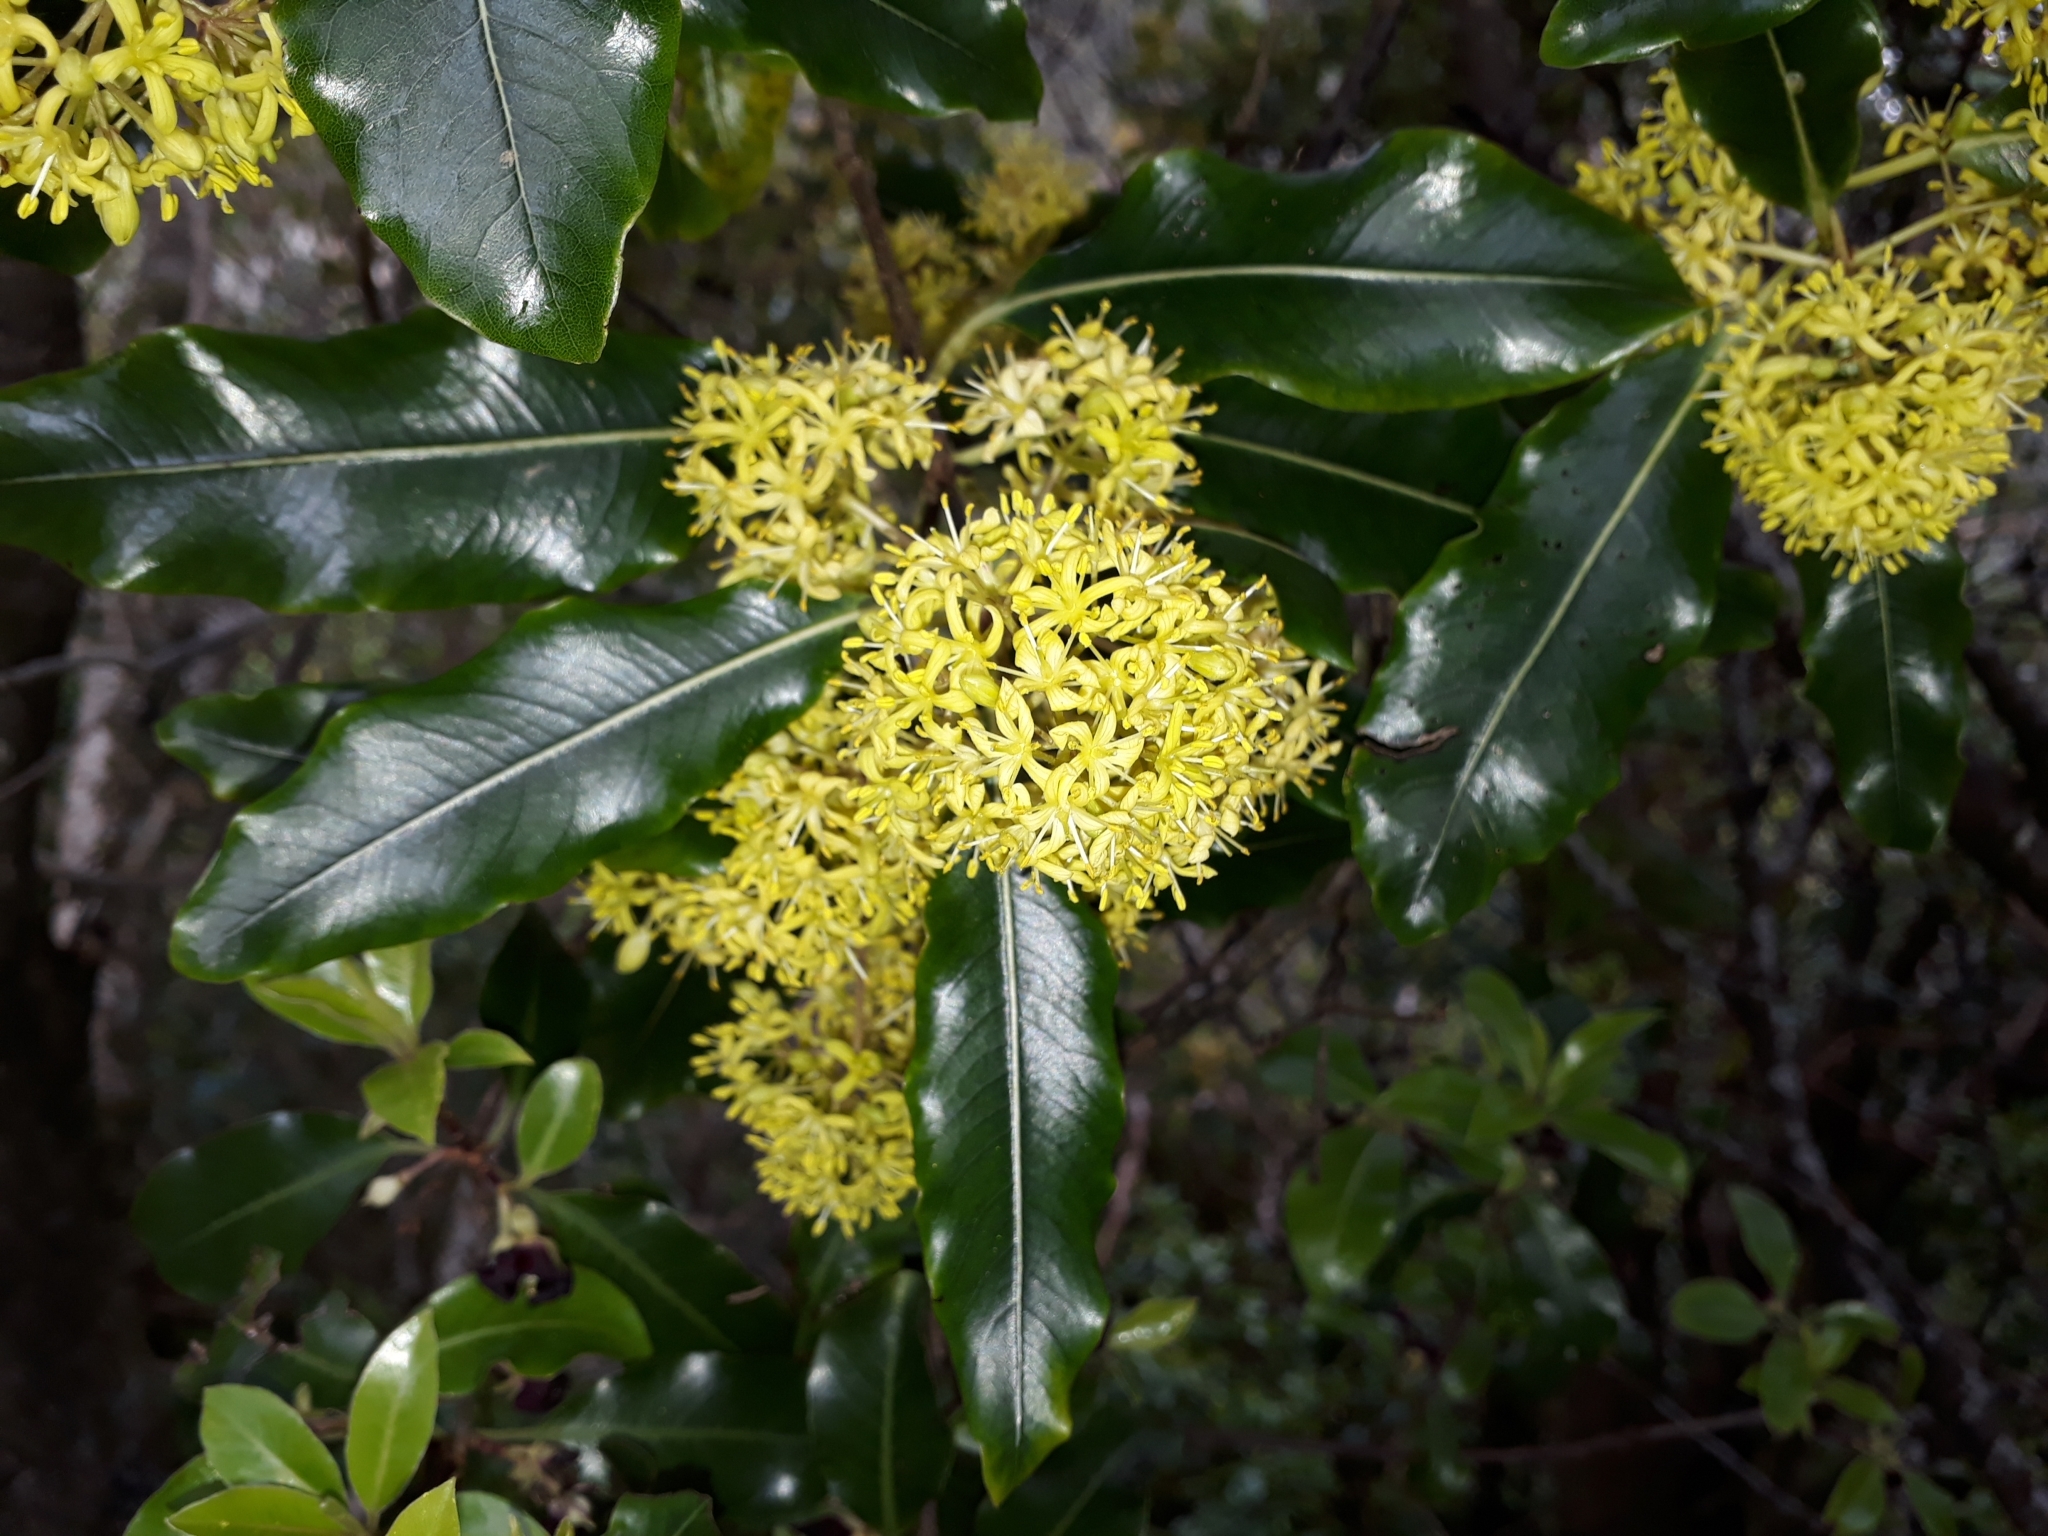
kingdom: Plantae
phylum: Tracheophyta
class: Magnoliopsida
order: Apiales
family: Pittosporaceae
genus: Pittosporum
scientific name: Pittosporum eugenioides
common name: Lemonwood
